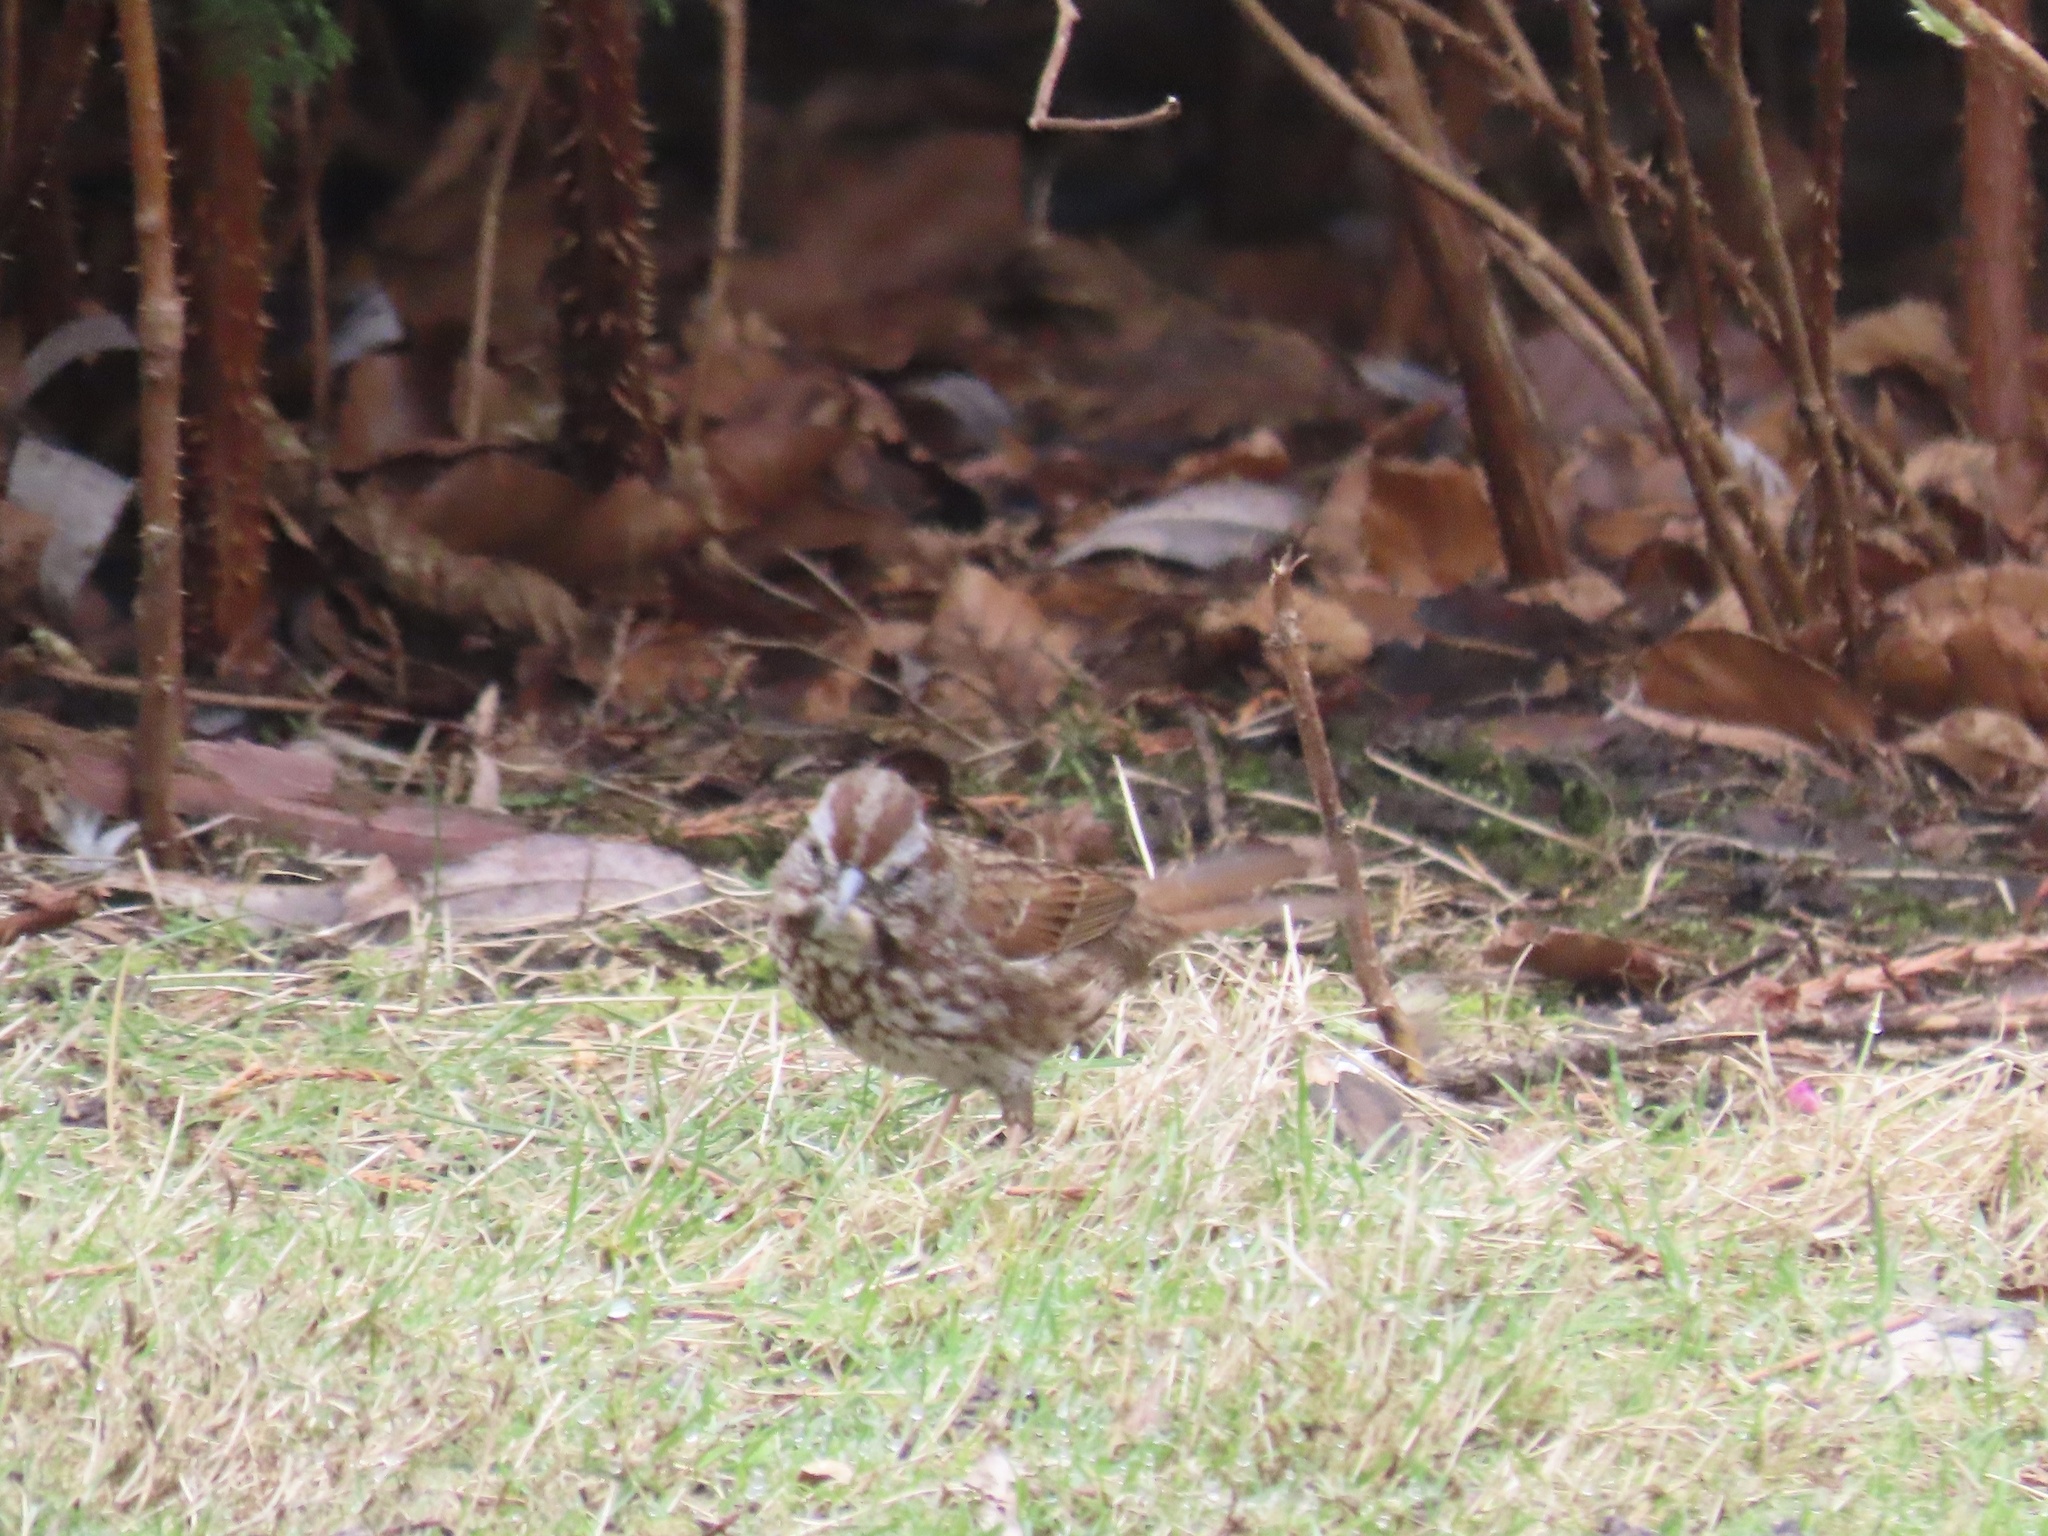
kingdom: Animalia
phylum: Chordata
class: Aves
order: Passeriformes
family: Passerellidae
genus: Melospiza
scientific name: Melospiza melodia
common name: Song sparrow
